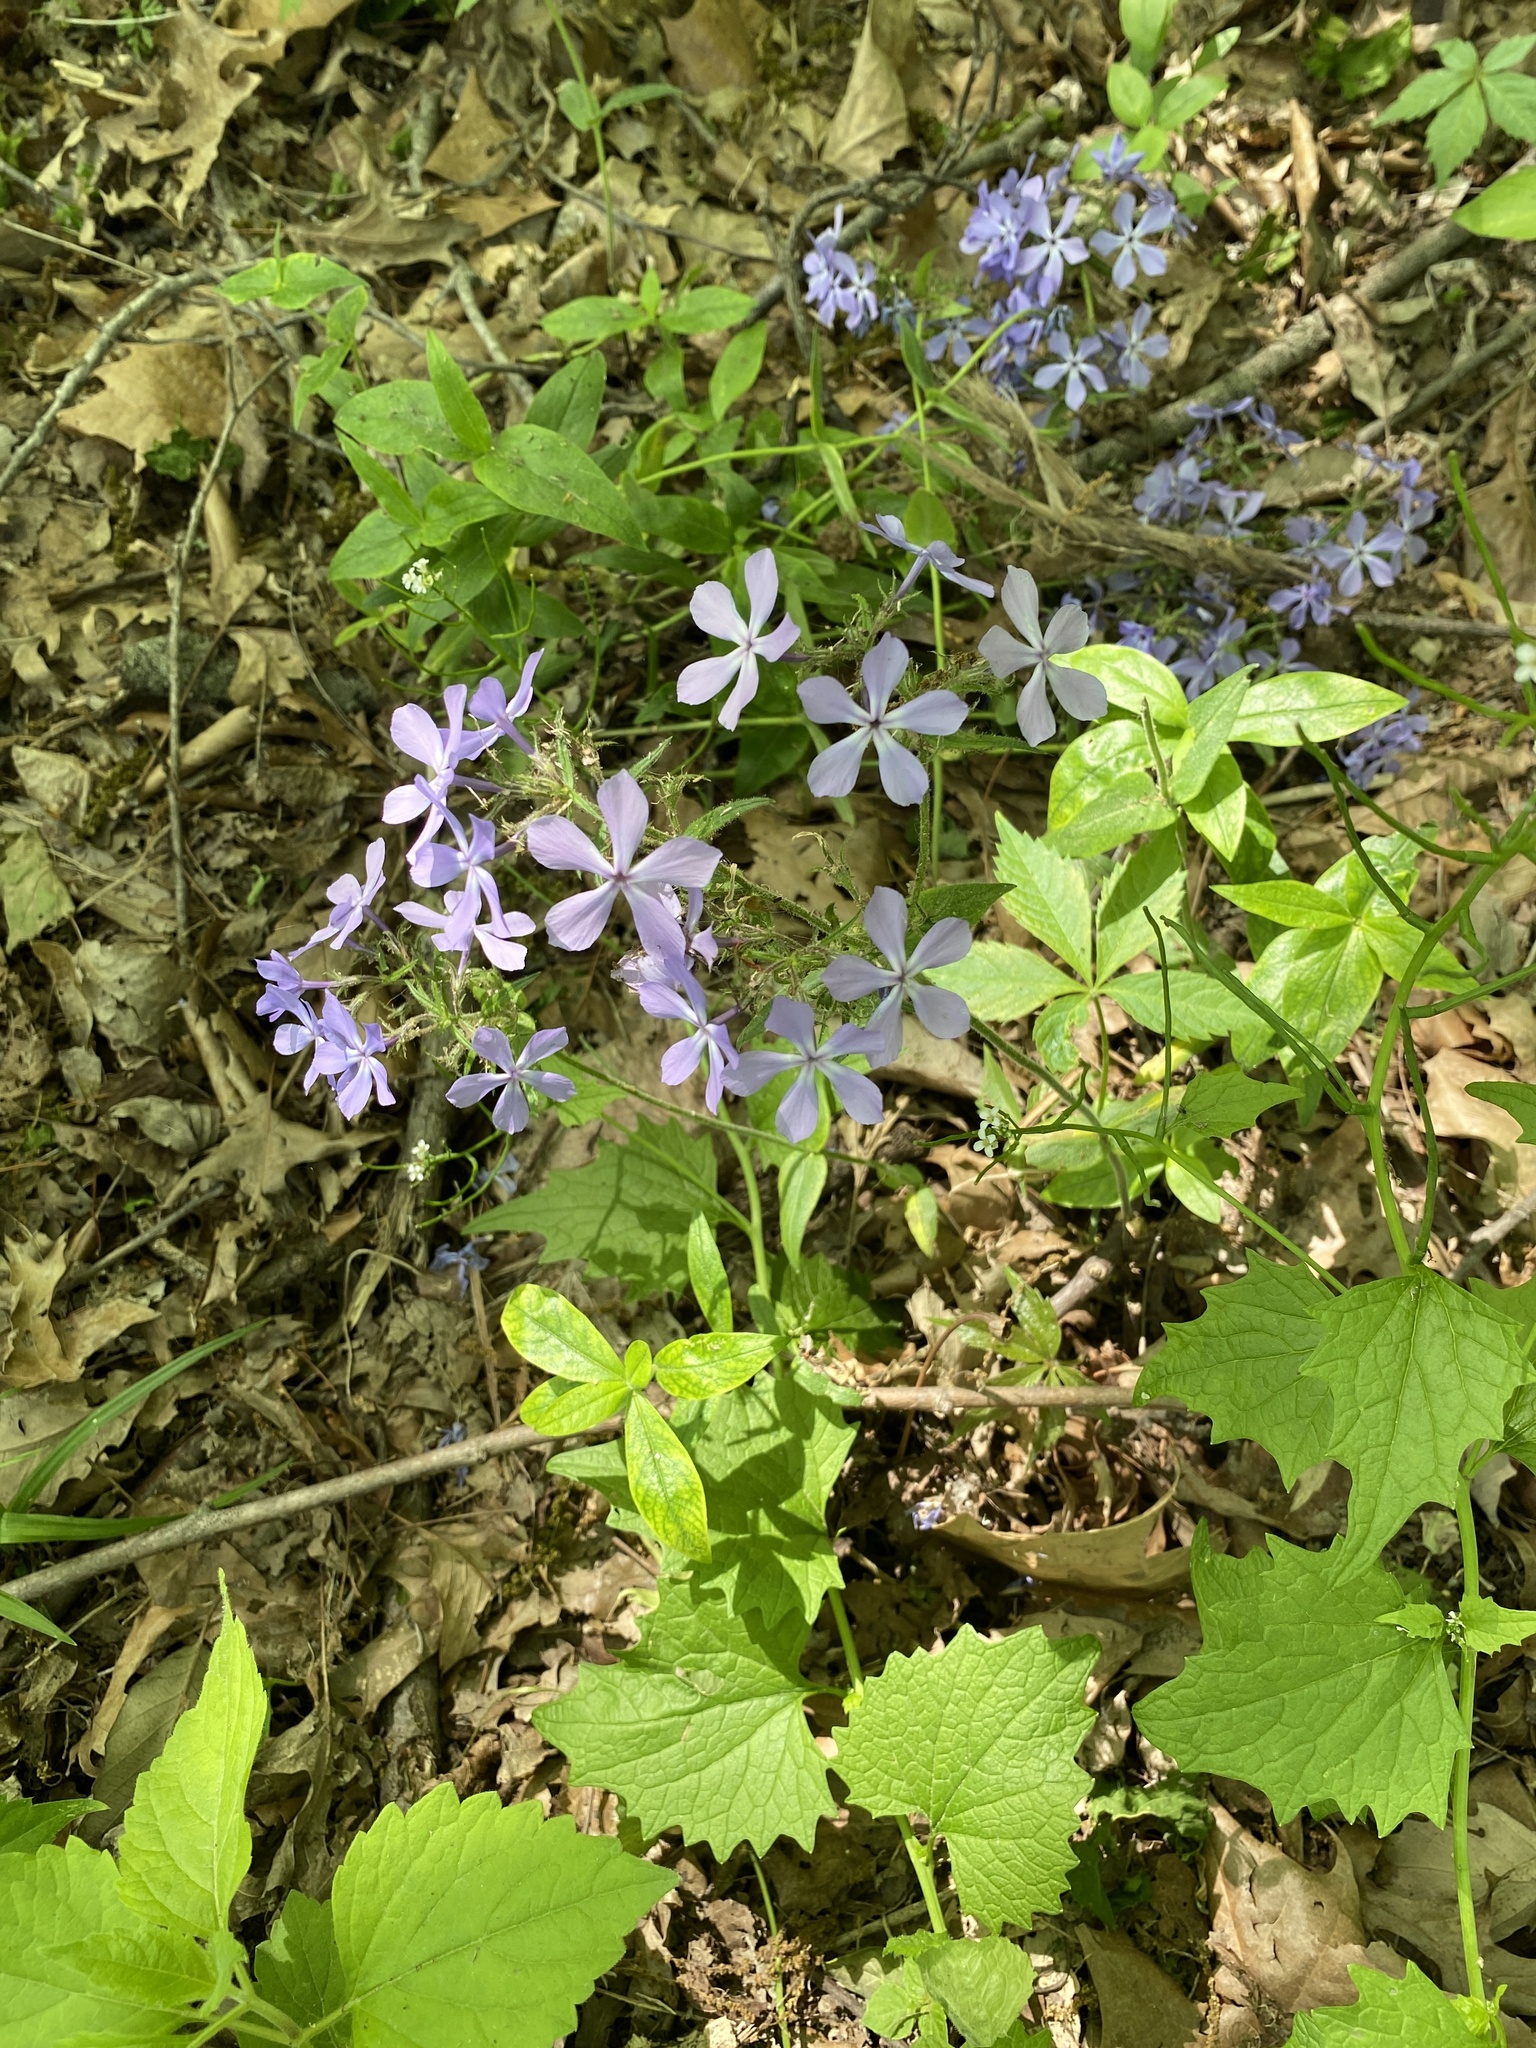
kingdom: Plantae
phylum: Tracheophyta
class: Magnoliopsida
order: Ericales
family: Polemoniaceae
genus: Phlox
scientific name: Phlox divaricata
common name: Blue phlox
